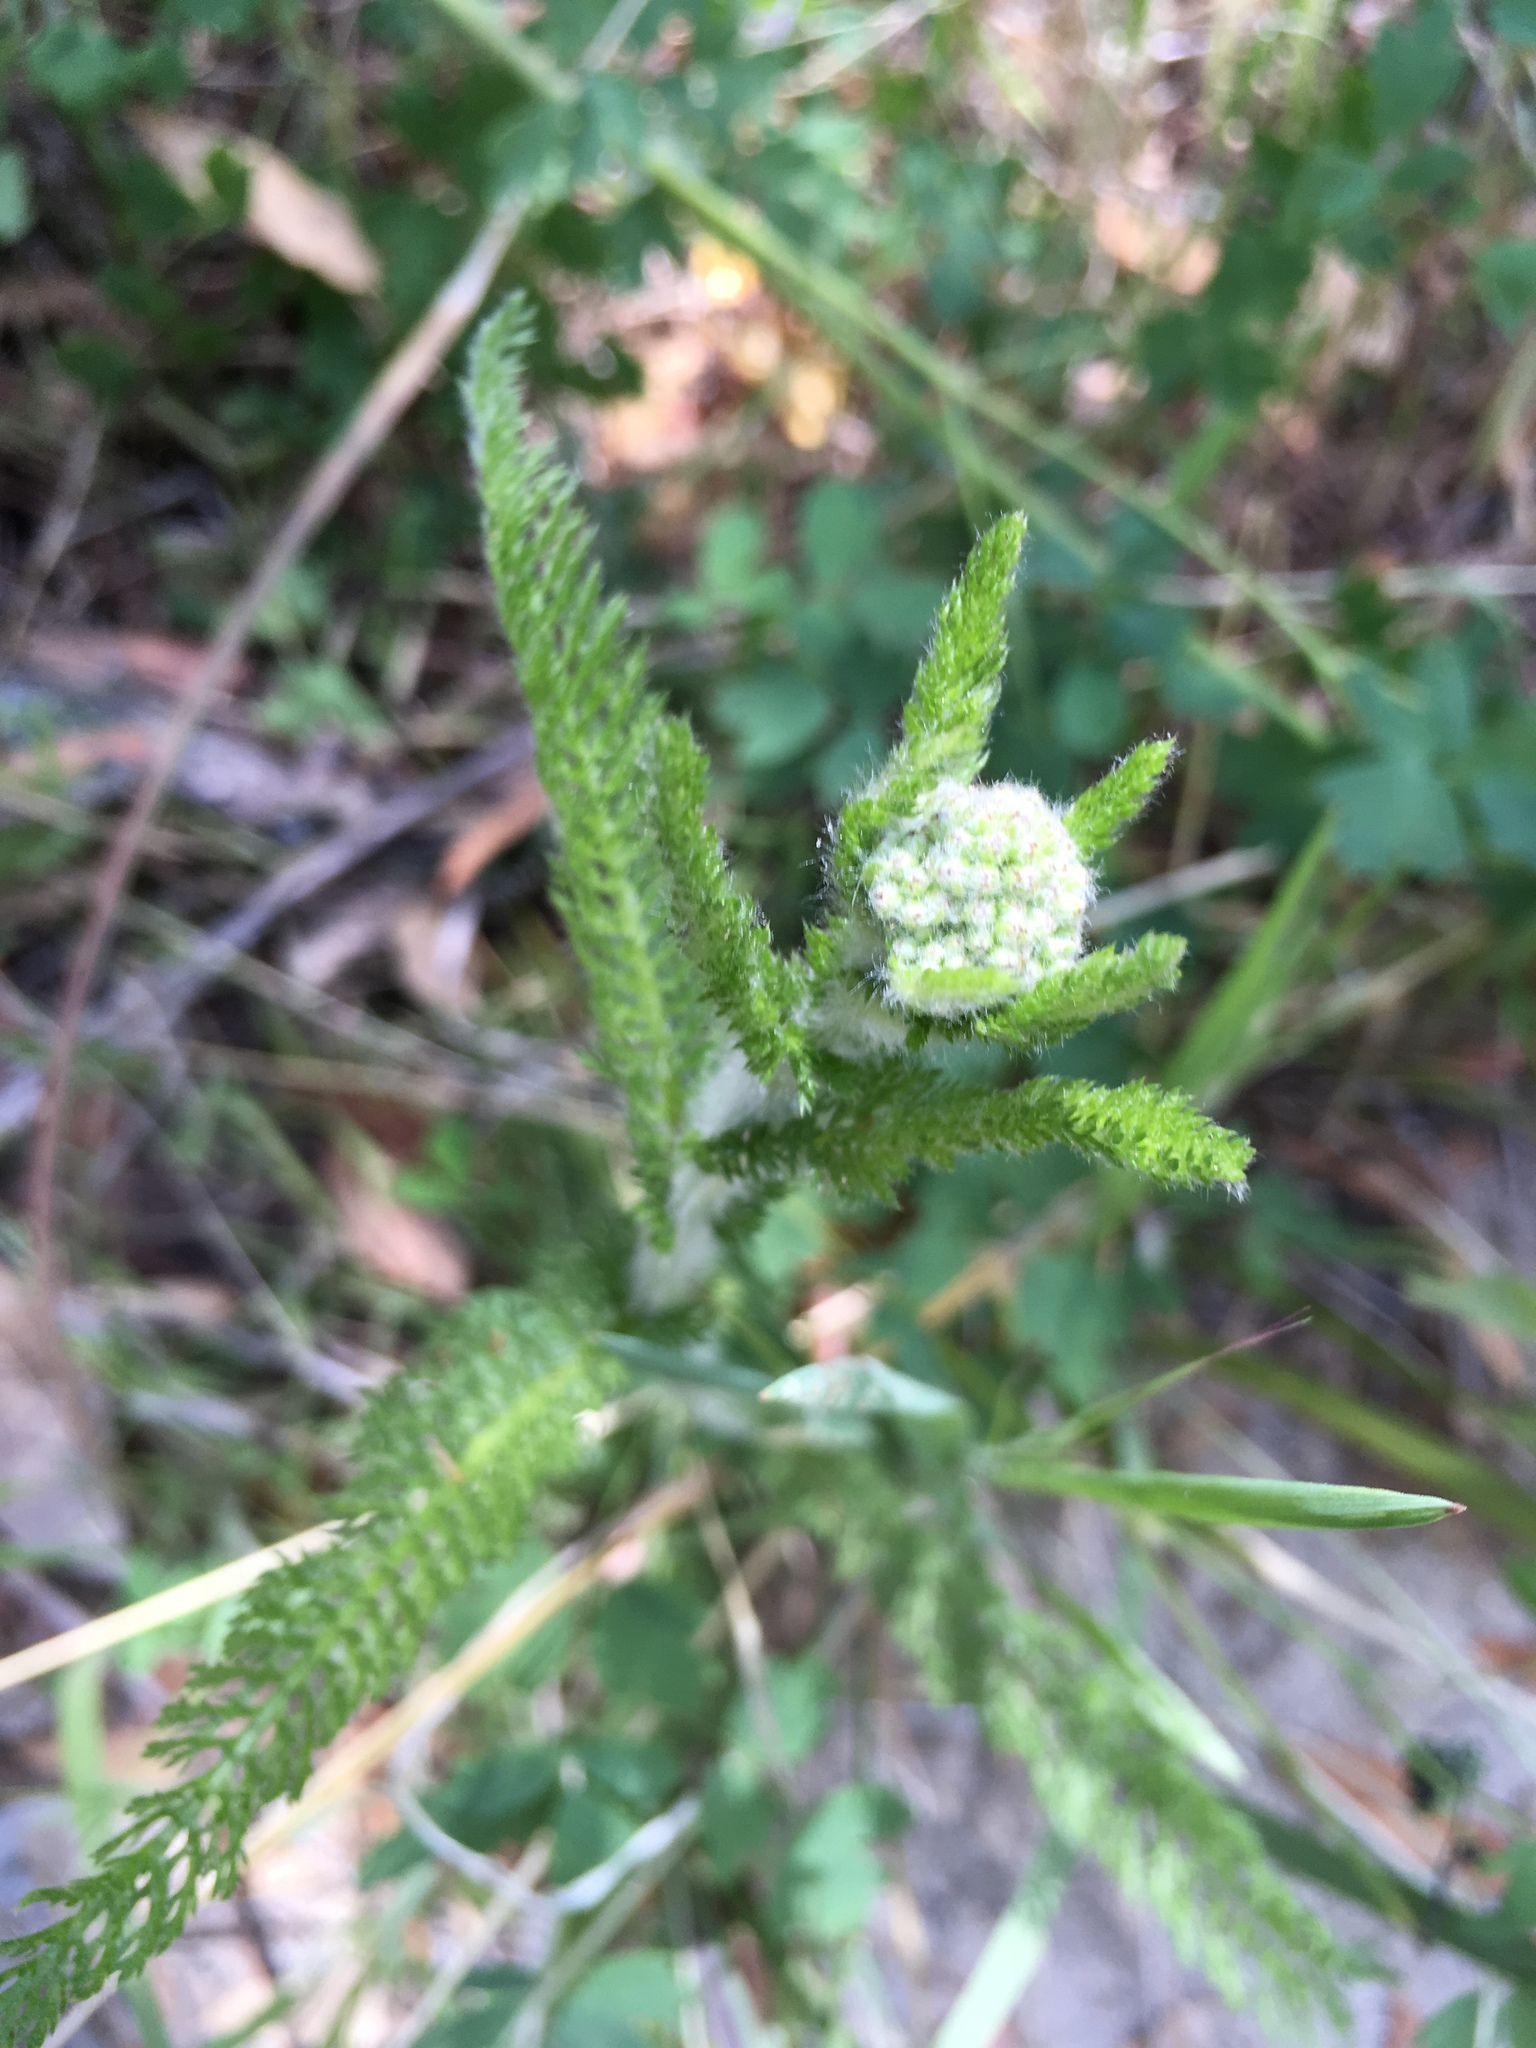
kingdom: Plantae
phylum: Tracheophyta
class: Magnoliopsida
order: Asterales
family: Asteraceae
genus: Achillea
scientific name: Achillea millefolium
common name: Yarrow
